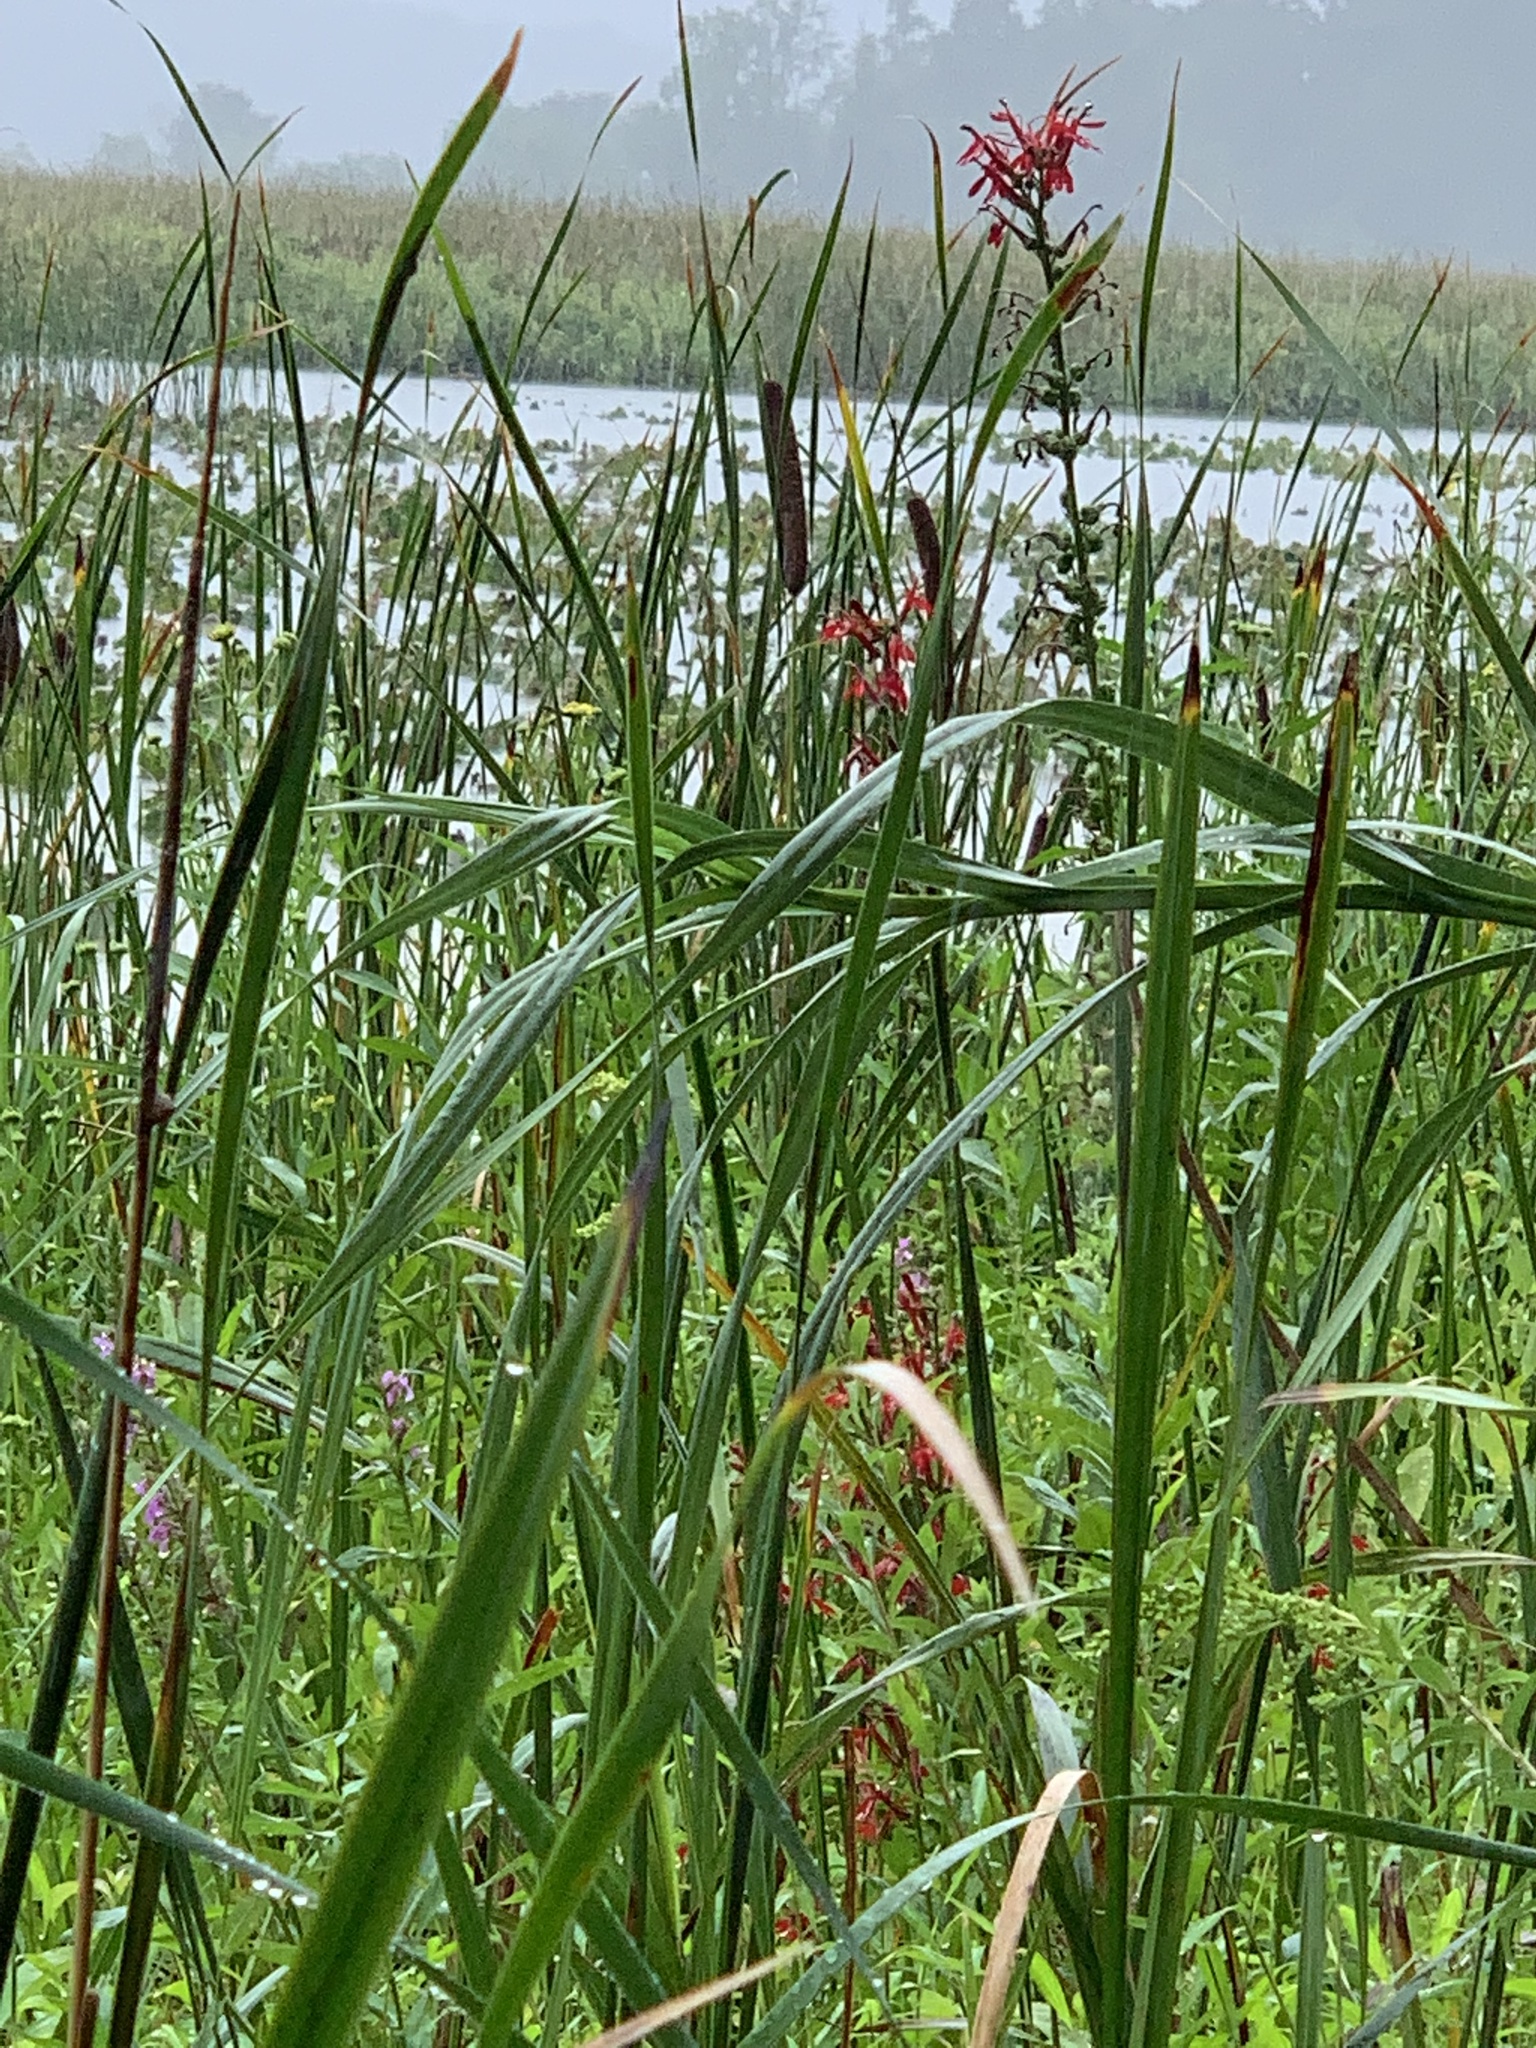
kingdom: Plantae
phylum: Tracheophyta
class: Magnoliopsida
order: Asterales
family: Campanulaceae
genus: Lobelia
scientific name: Lobelia cardinalis
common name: Cardinal flower
